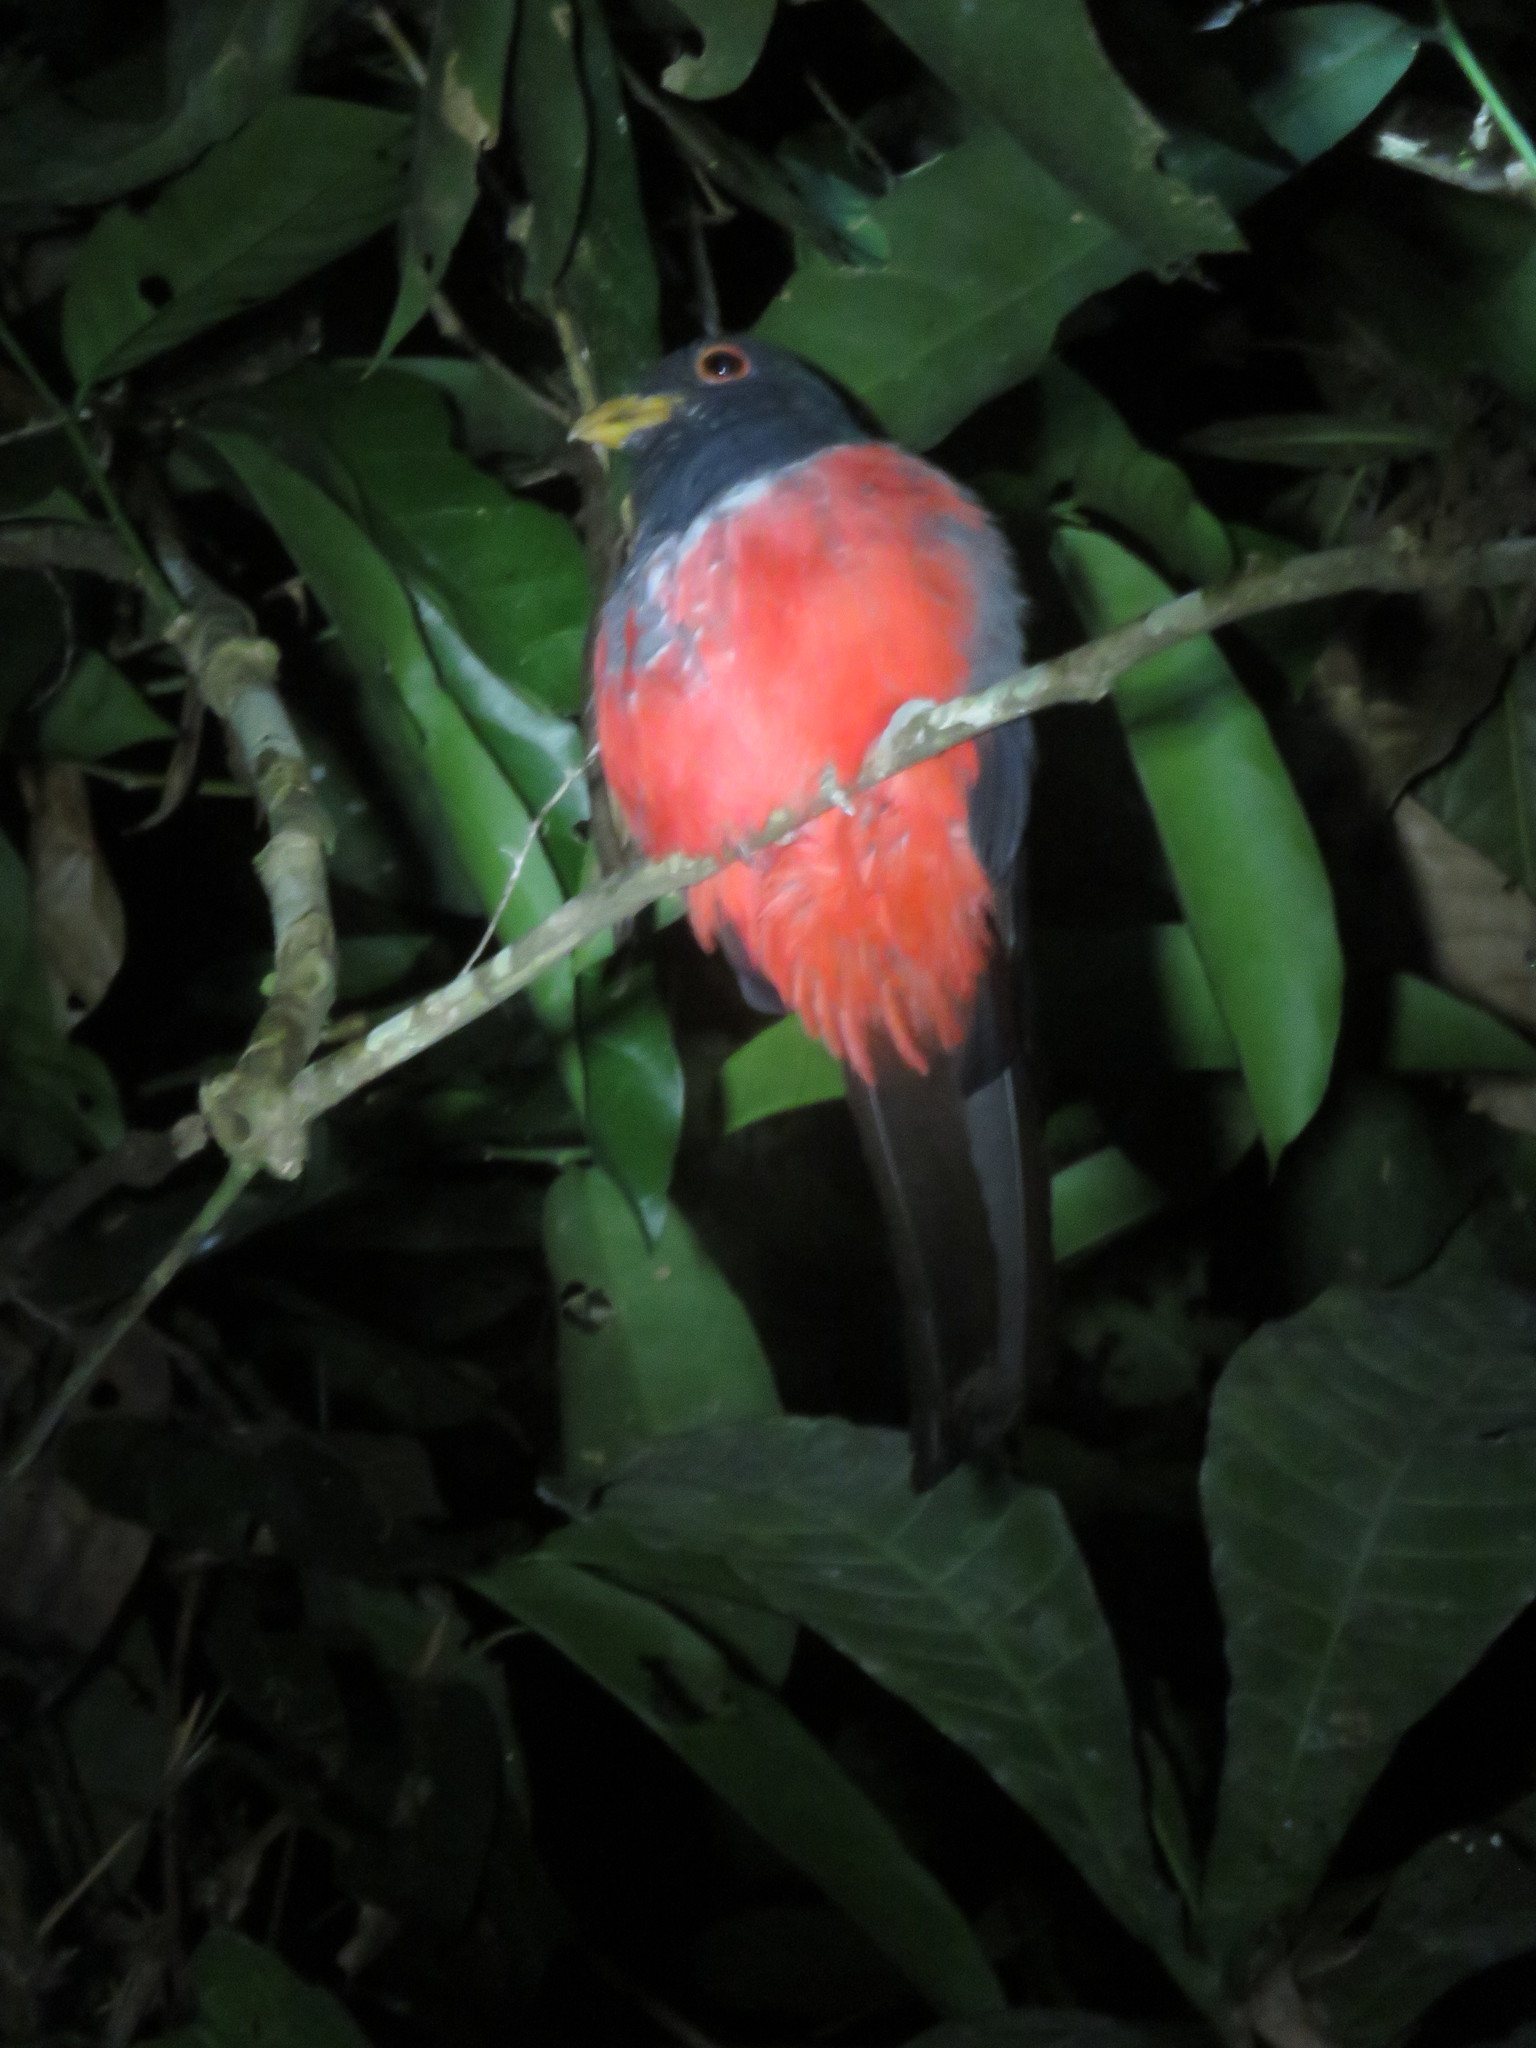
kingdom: Animalia
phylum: Chordata
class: Aves
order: Trogoniformes
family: Trogonidae
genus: Trogon
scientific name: Trogon melanurus
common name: Black-tailed trogon
